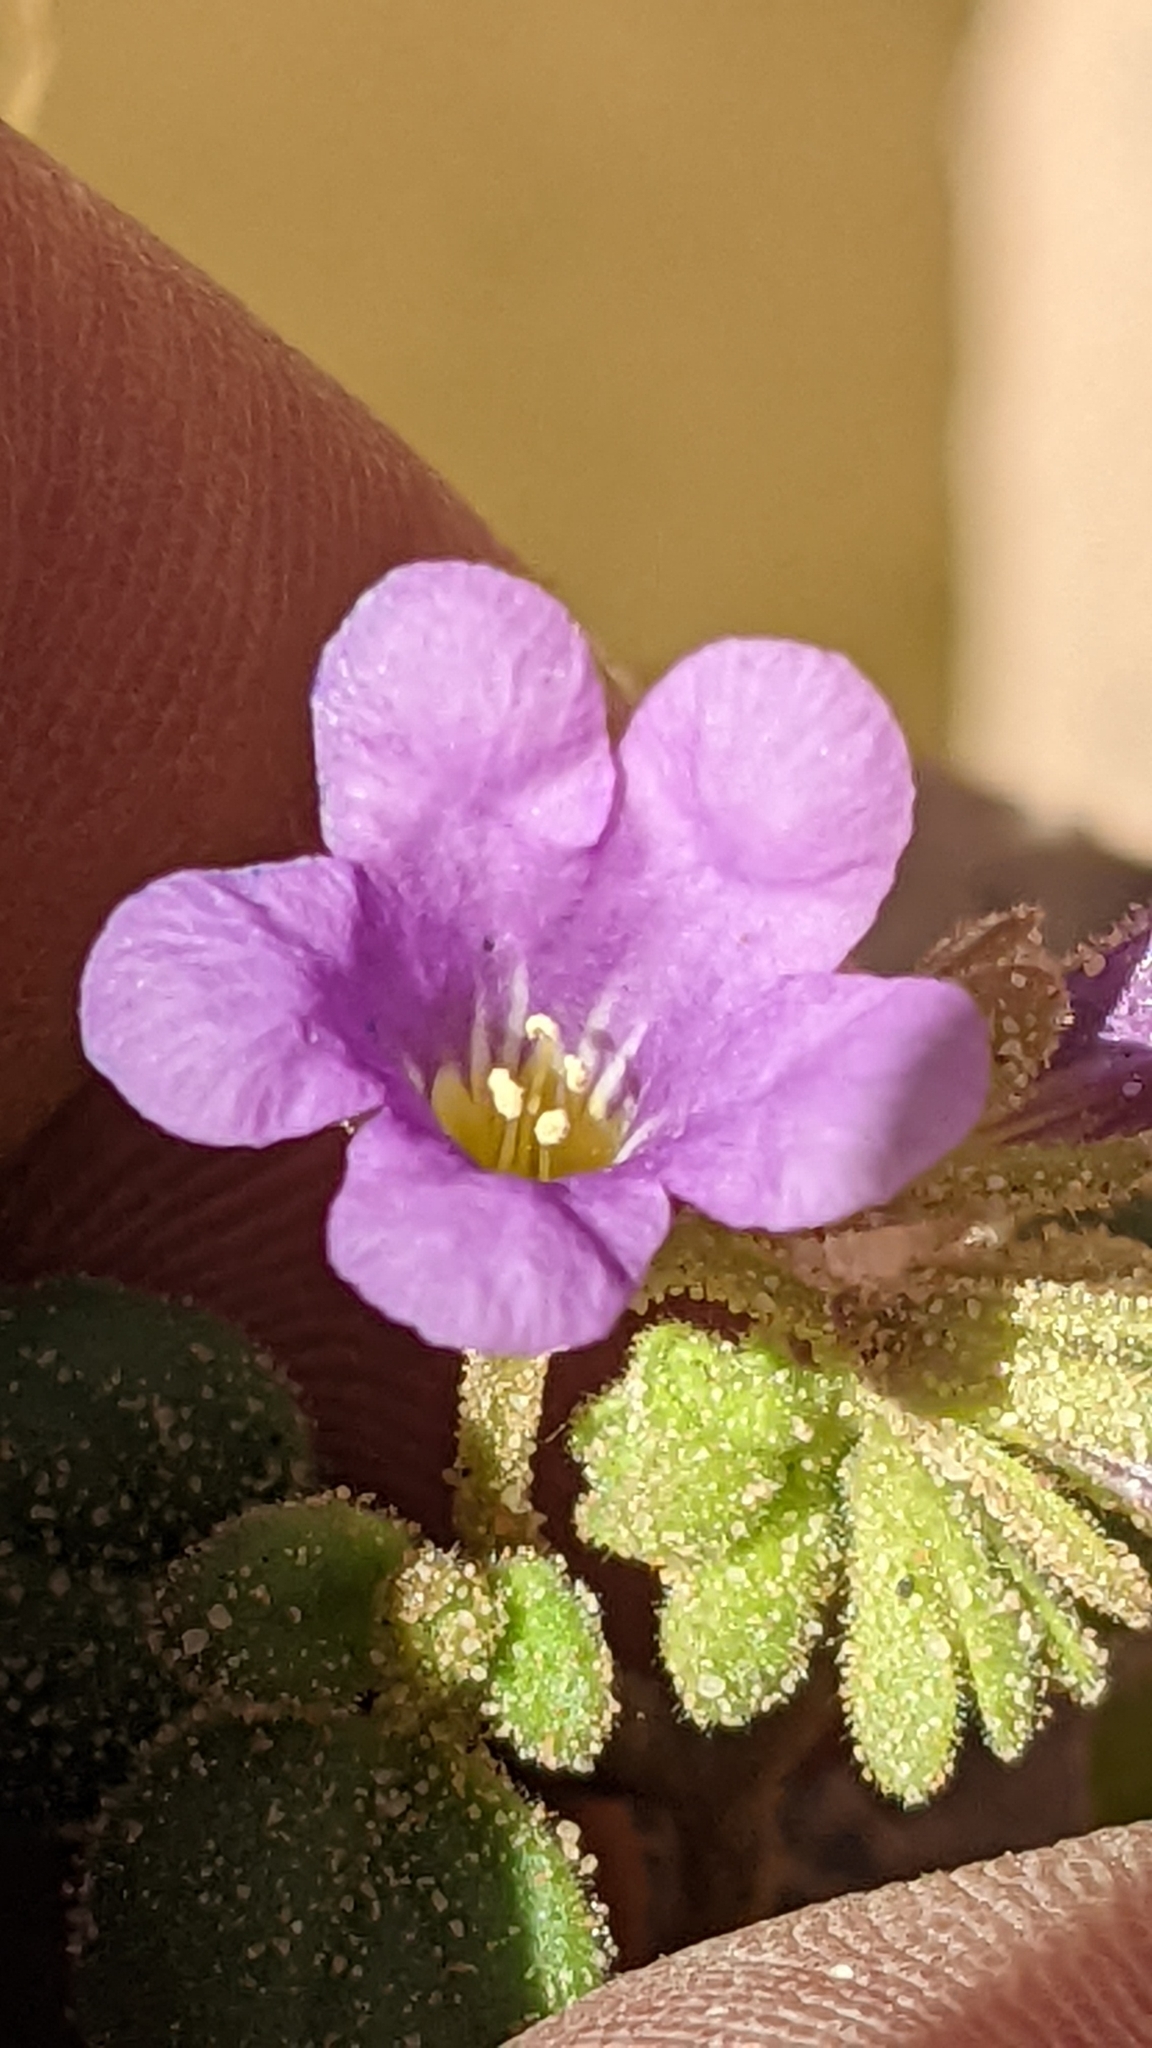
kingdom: Plantae
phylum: Tracheophyta
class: Magnoliopsida
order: Boraginales
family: Hydrophyllaceae
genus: Phacelia
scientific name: Phacelia demissa
